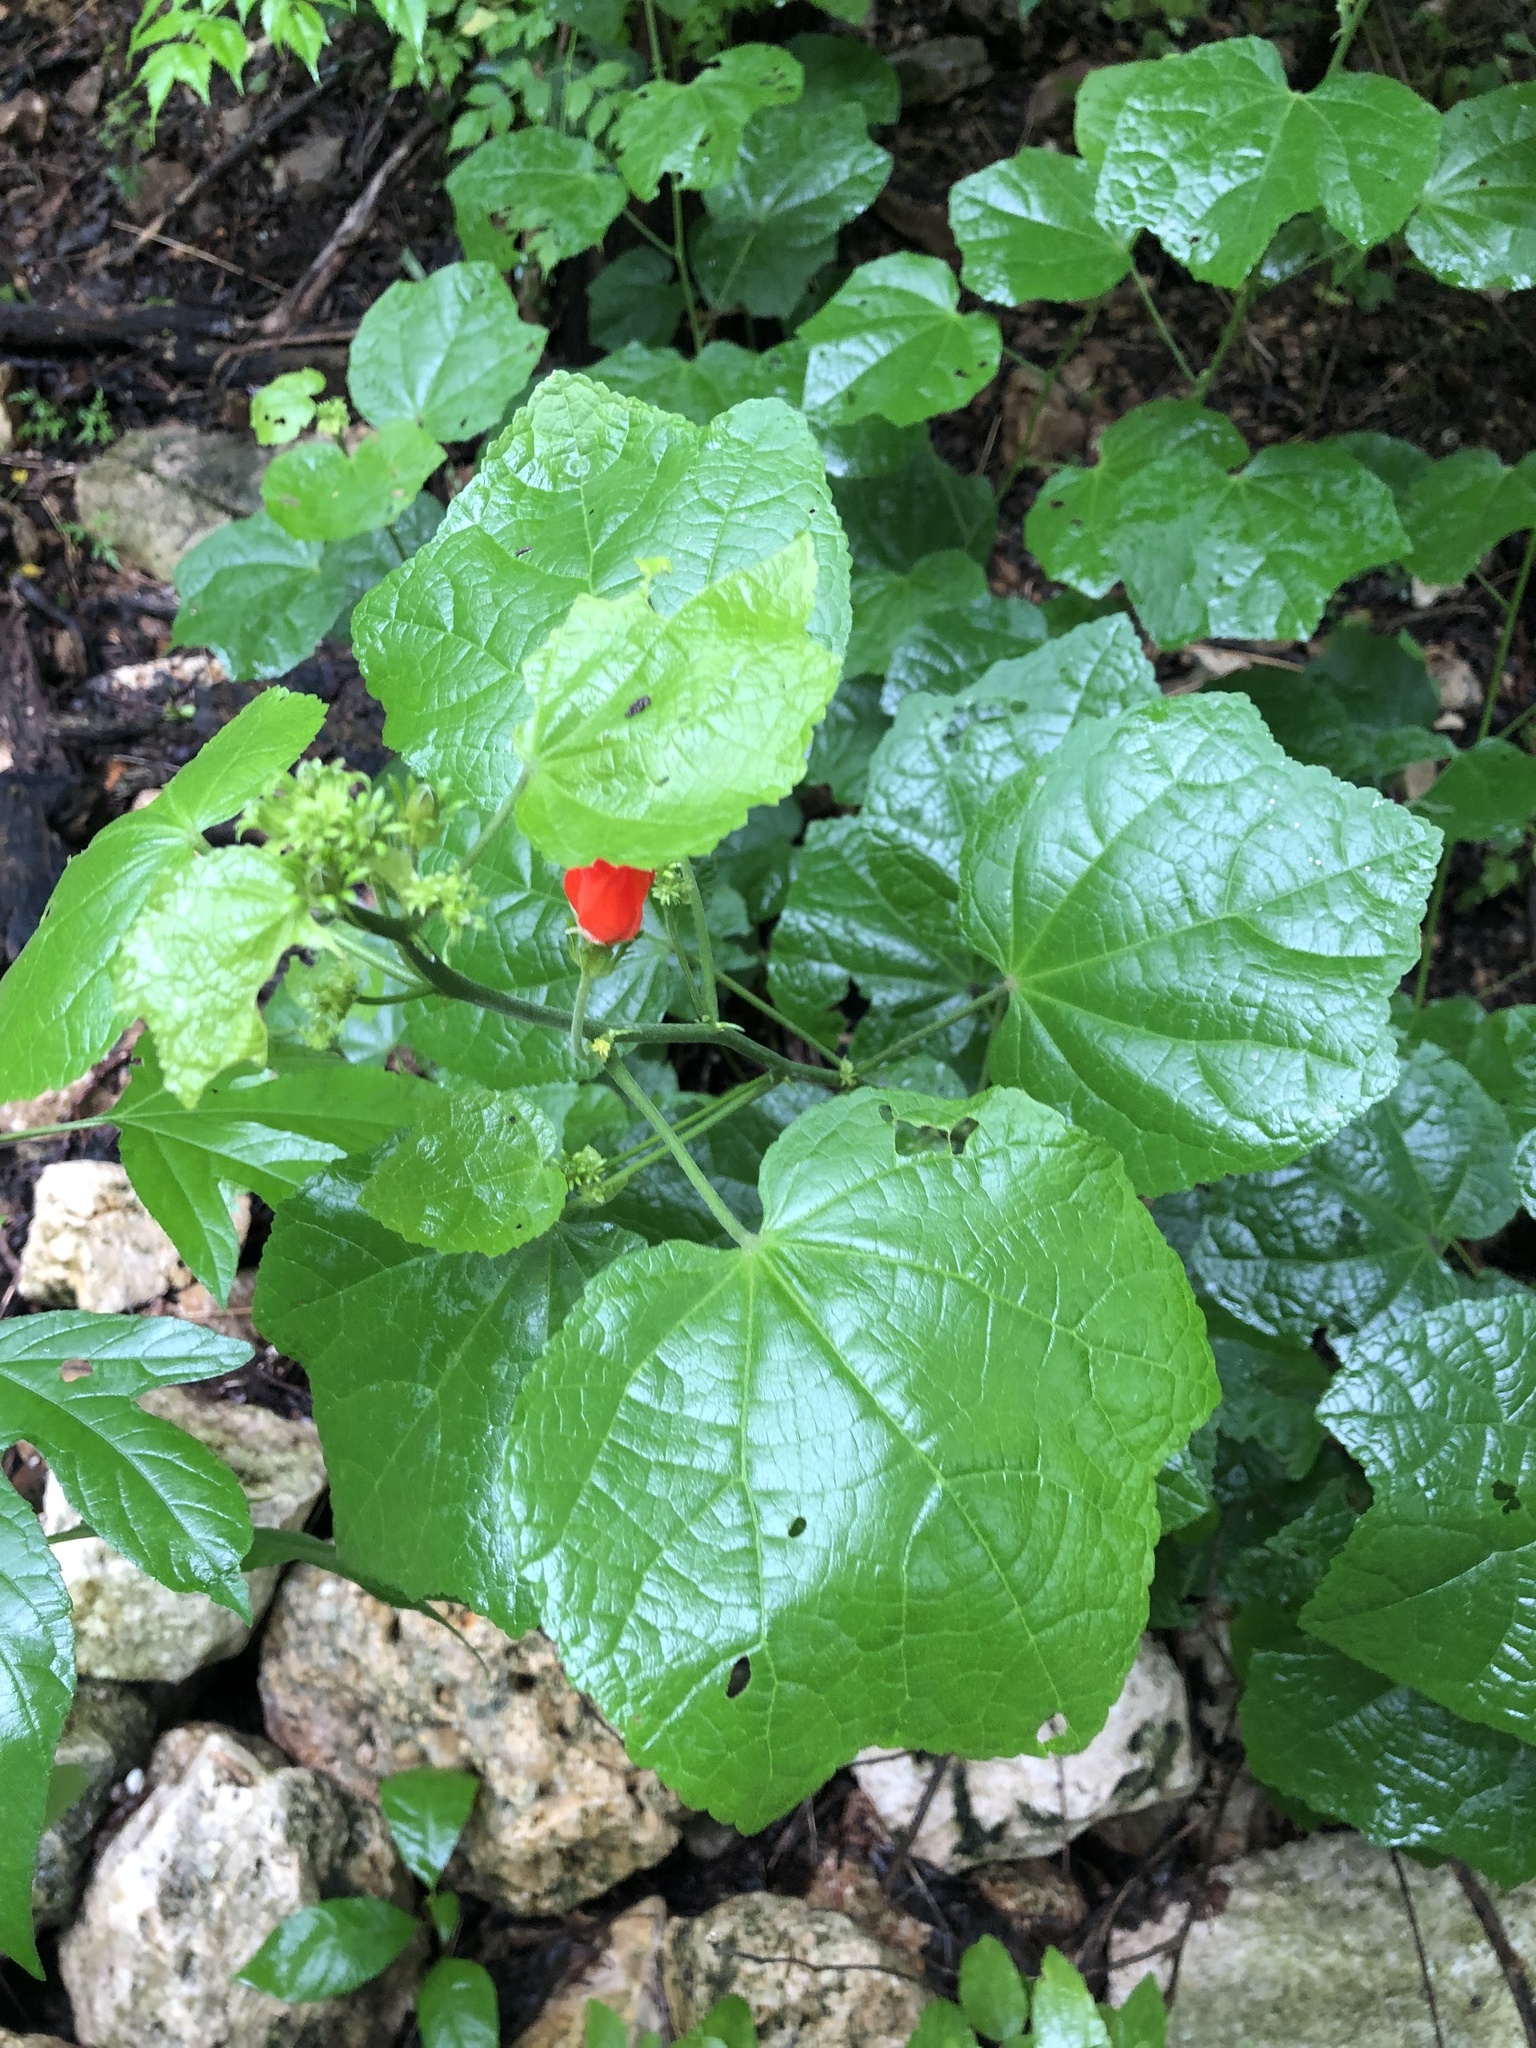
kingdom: Plantae
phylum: Tracheophyta
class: Magnoliopsida
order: Malvales
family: Malvaceae
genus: Malvaviscus
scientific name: Malvaviscus arboreus
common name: Wax mallow
